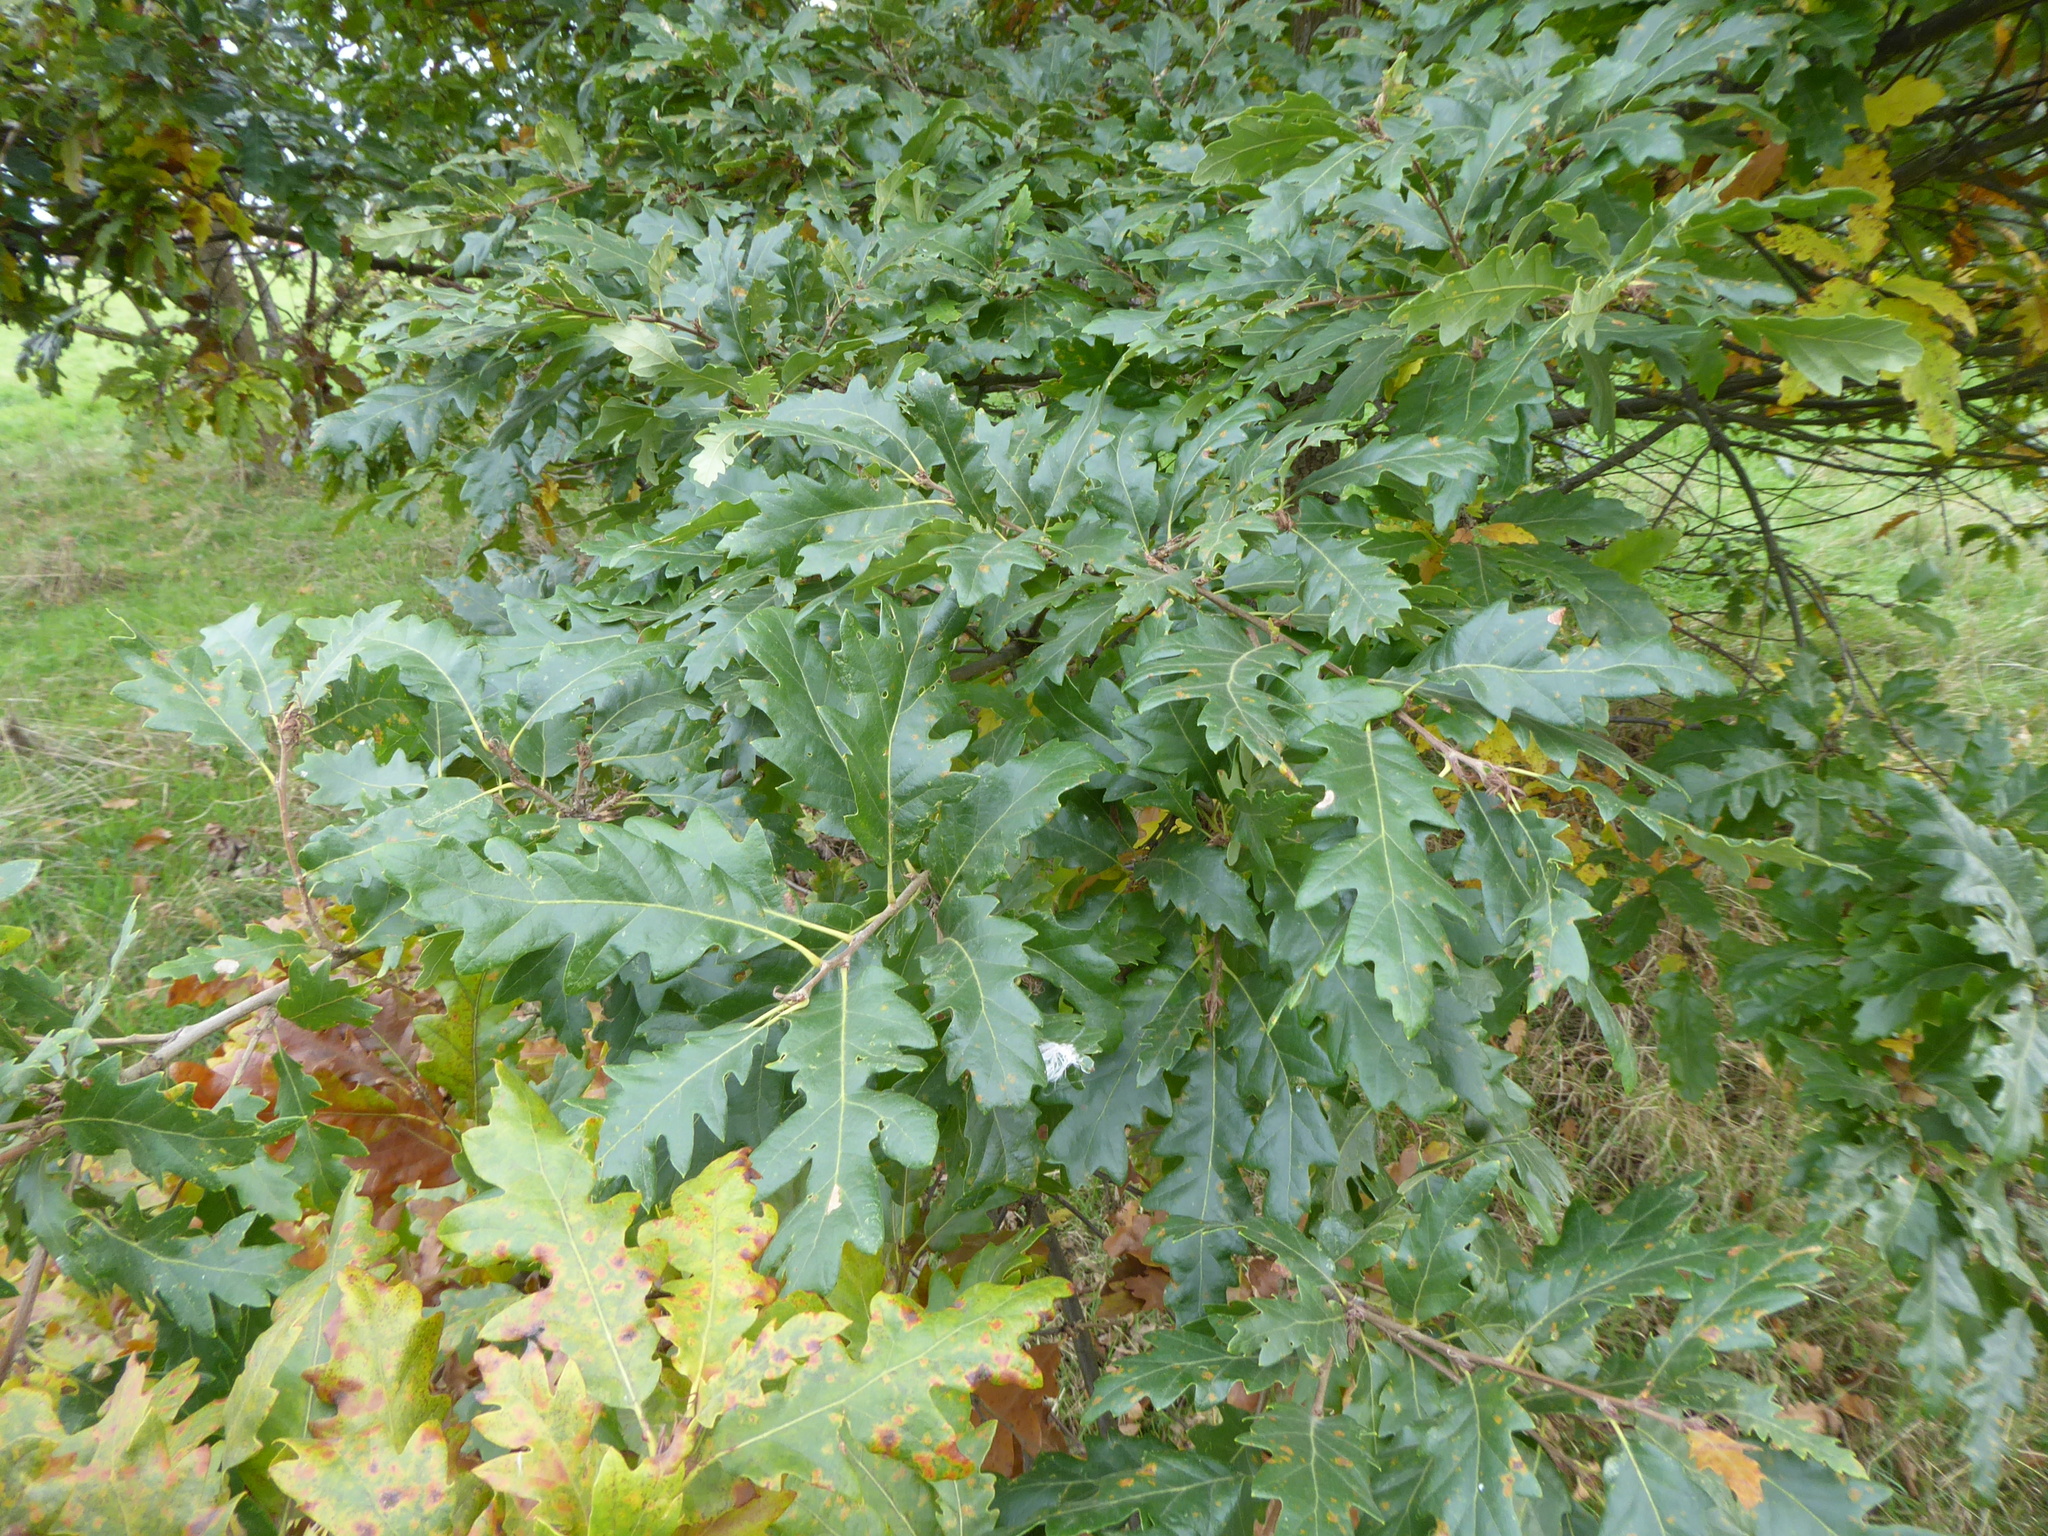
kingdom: Plantae
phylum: Tracheophyta
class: Magnoliopsida
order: Fagales
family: Fagaceae
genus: Quercus
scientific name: Quercus cerris
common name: Turkey oak
